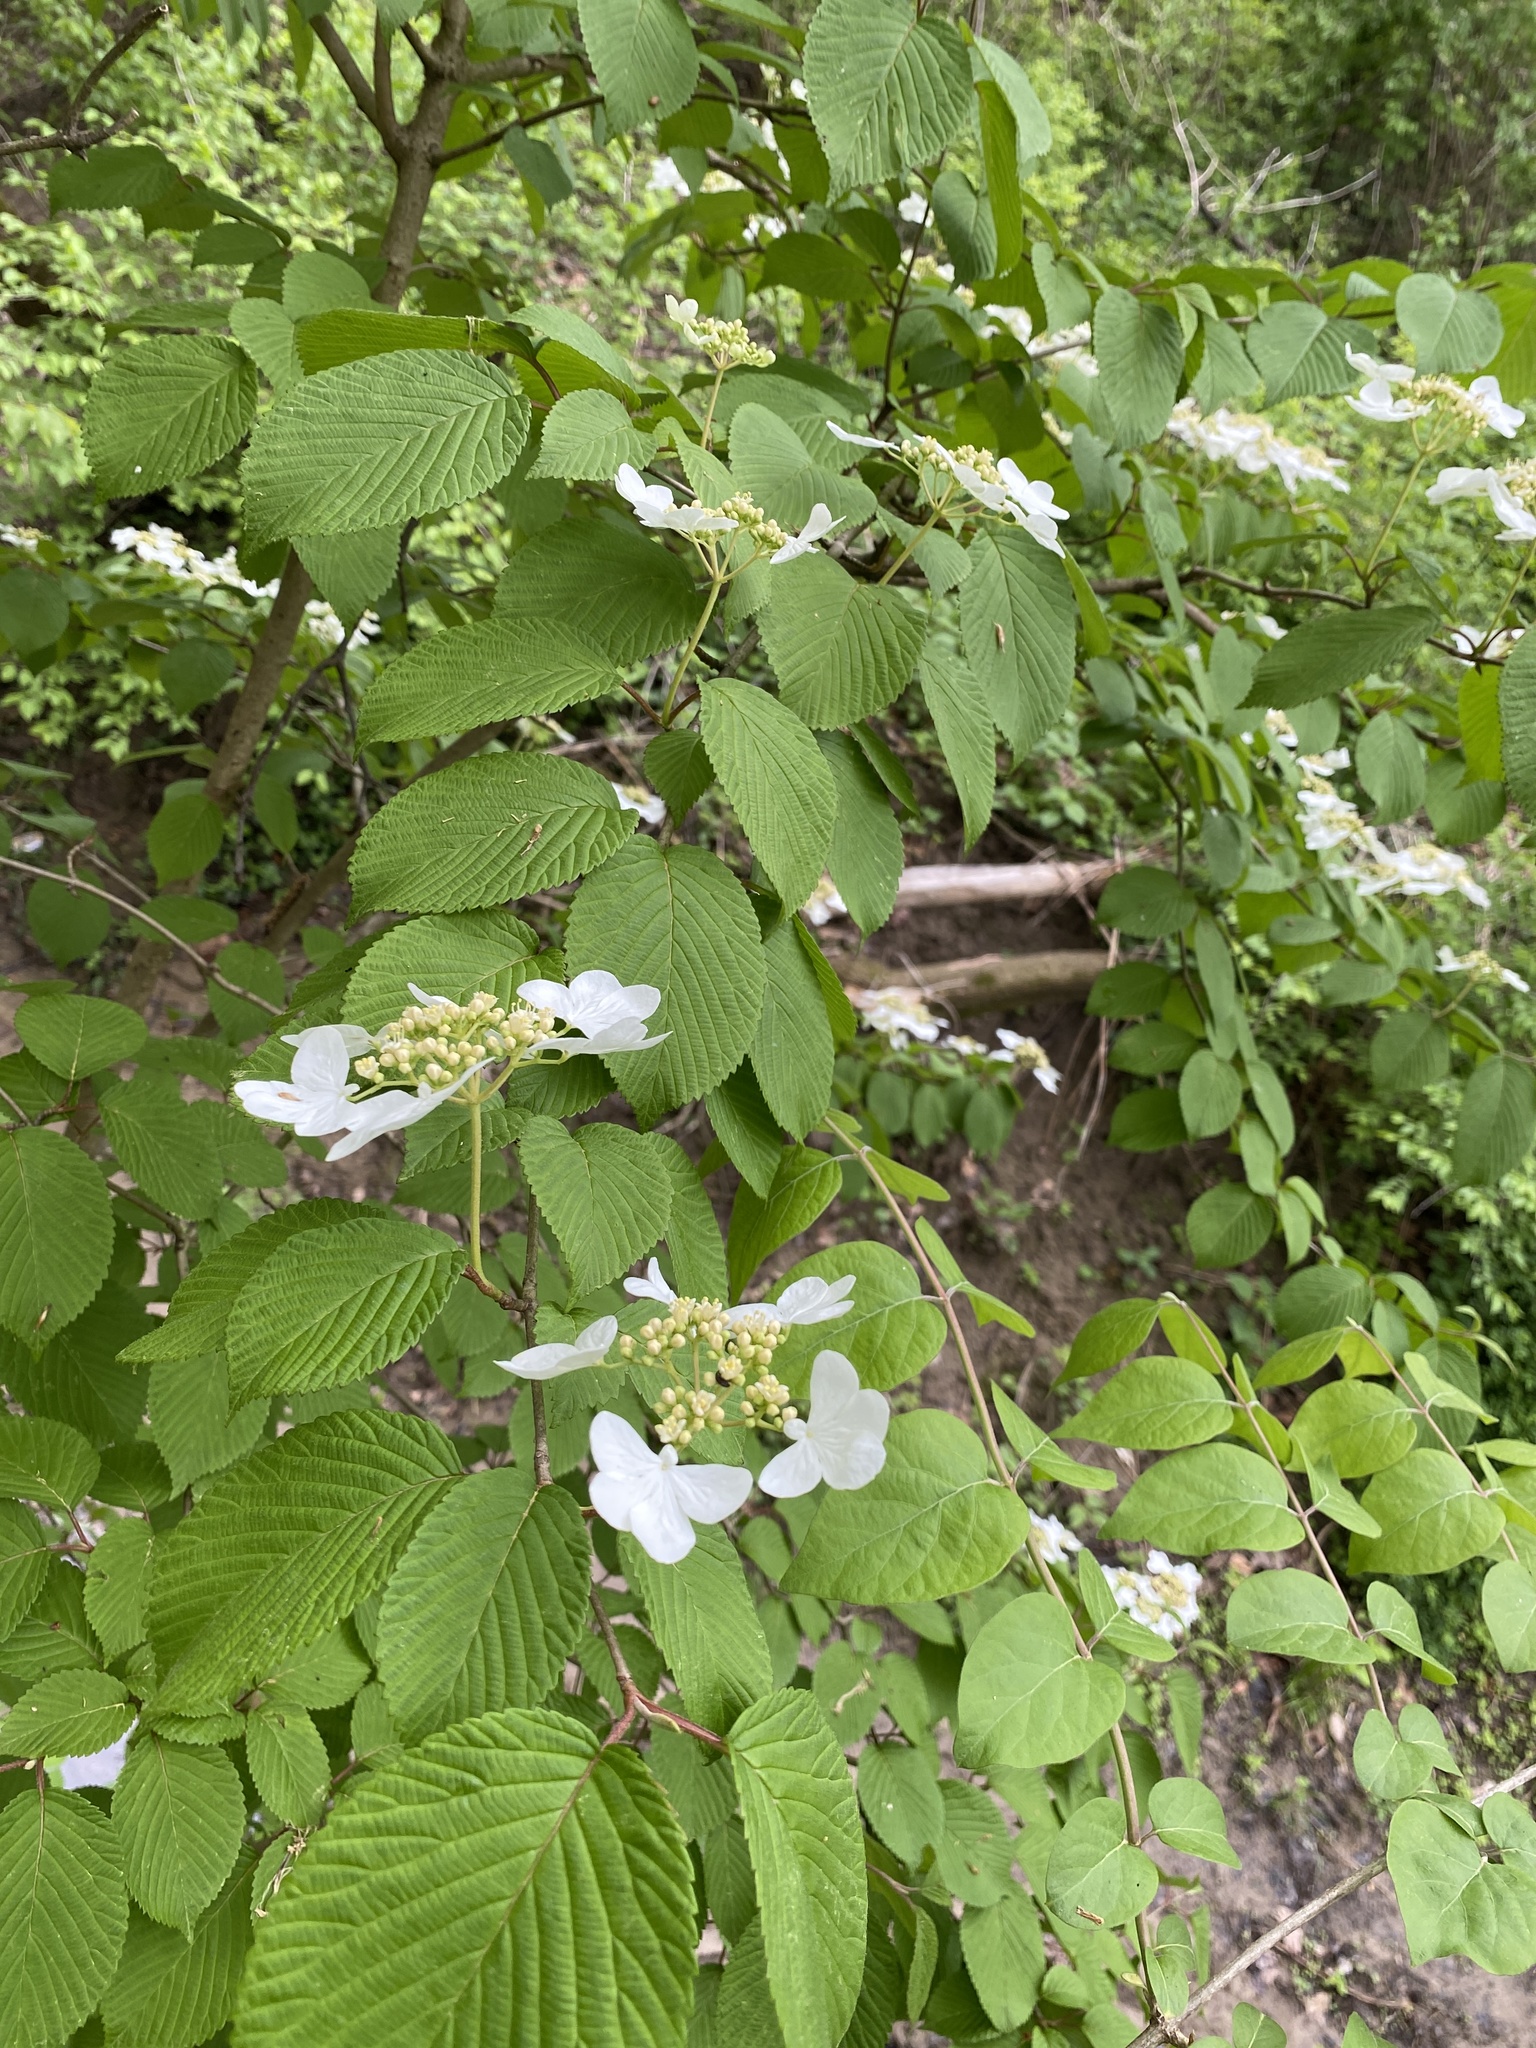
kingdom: Plantae
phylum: Tracheophyta
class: Magnoliopsida
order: Dipsacales
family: Viburnaceae
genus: Viburnum
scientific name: Viburnum plicatum
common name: Japanese snowball
